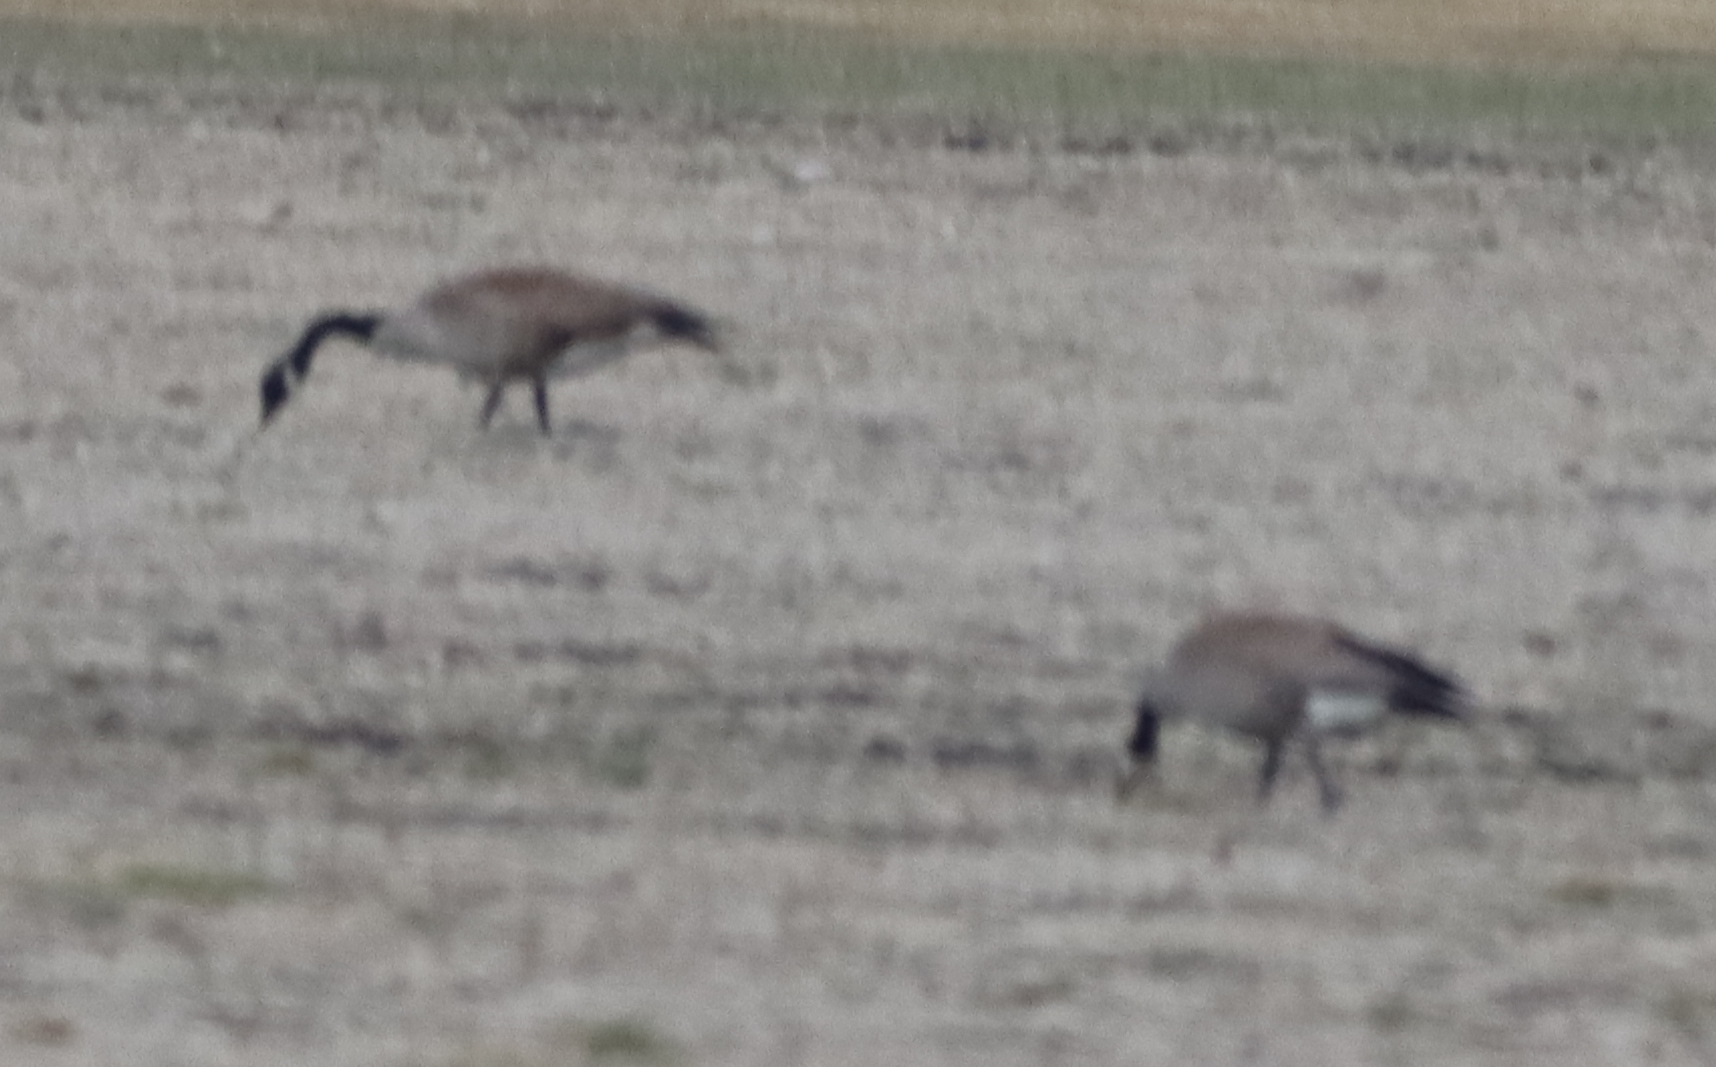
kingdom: Animalia
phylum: Chordata
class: Aves
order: Anseriformes
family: Anatidae
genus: Branta
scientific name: Branta canadensis
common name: Canada goose
